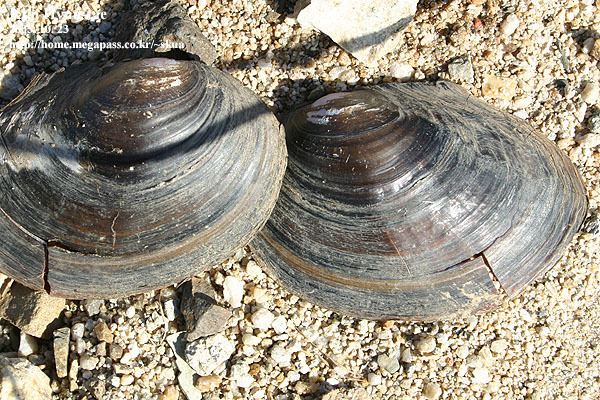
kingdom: Animalia
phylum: Mollusca
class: Bivalvia
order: Unionida
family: Unionidae
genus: Sinanodonta
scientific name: Sinanodonta schrenkii
